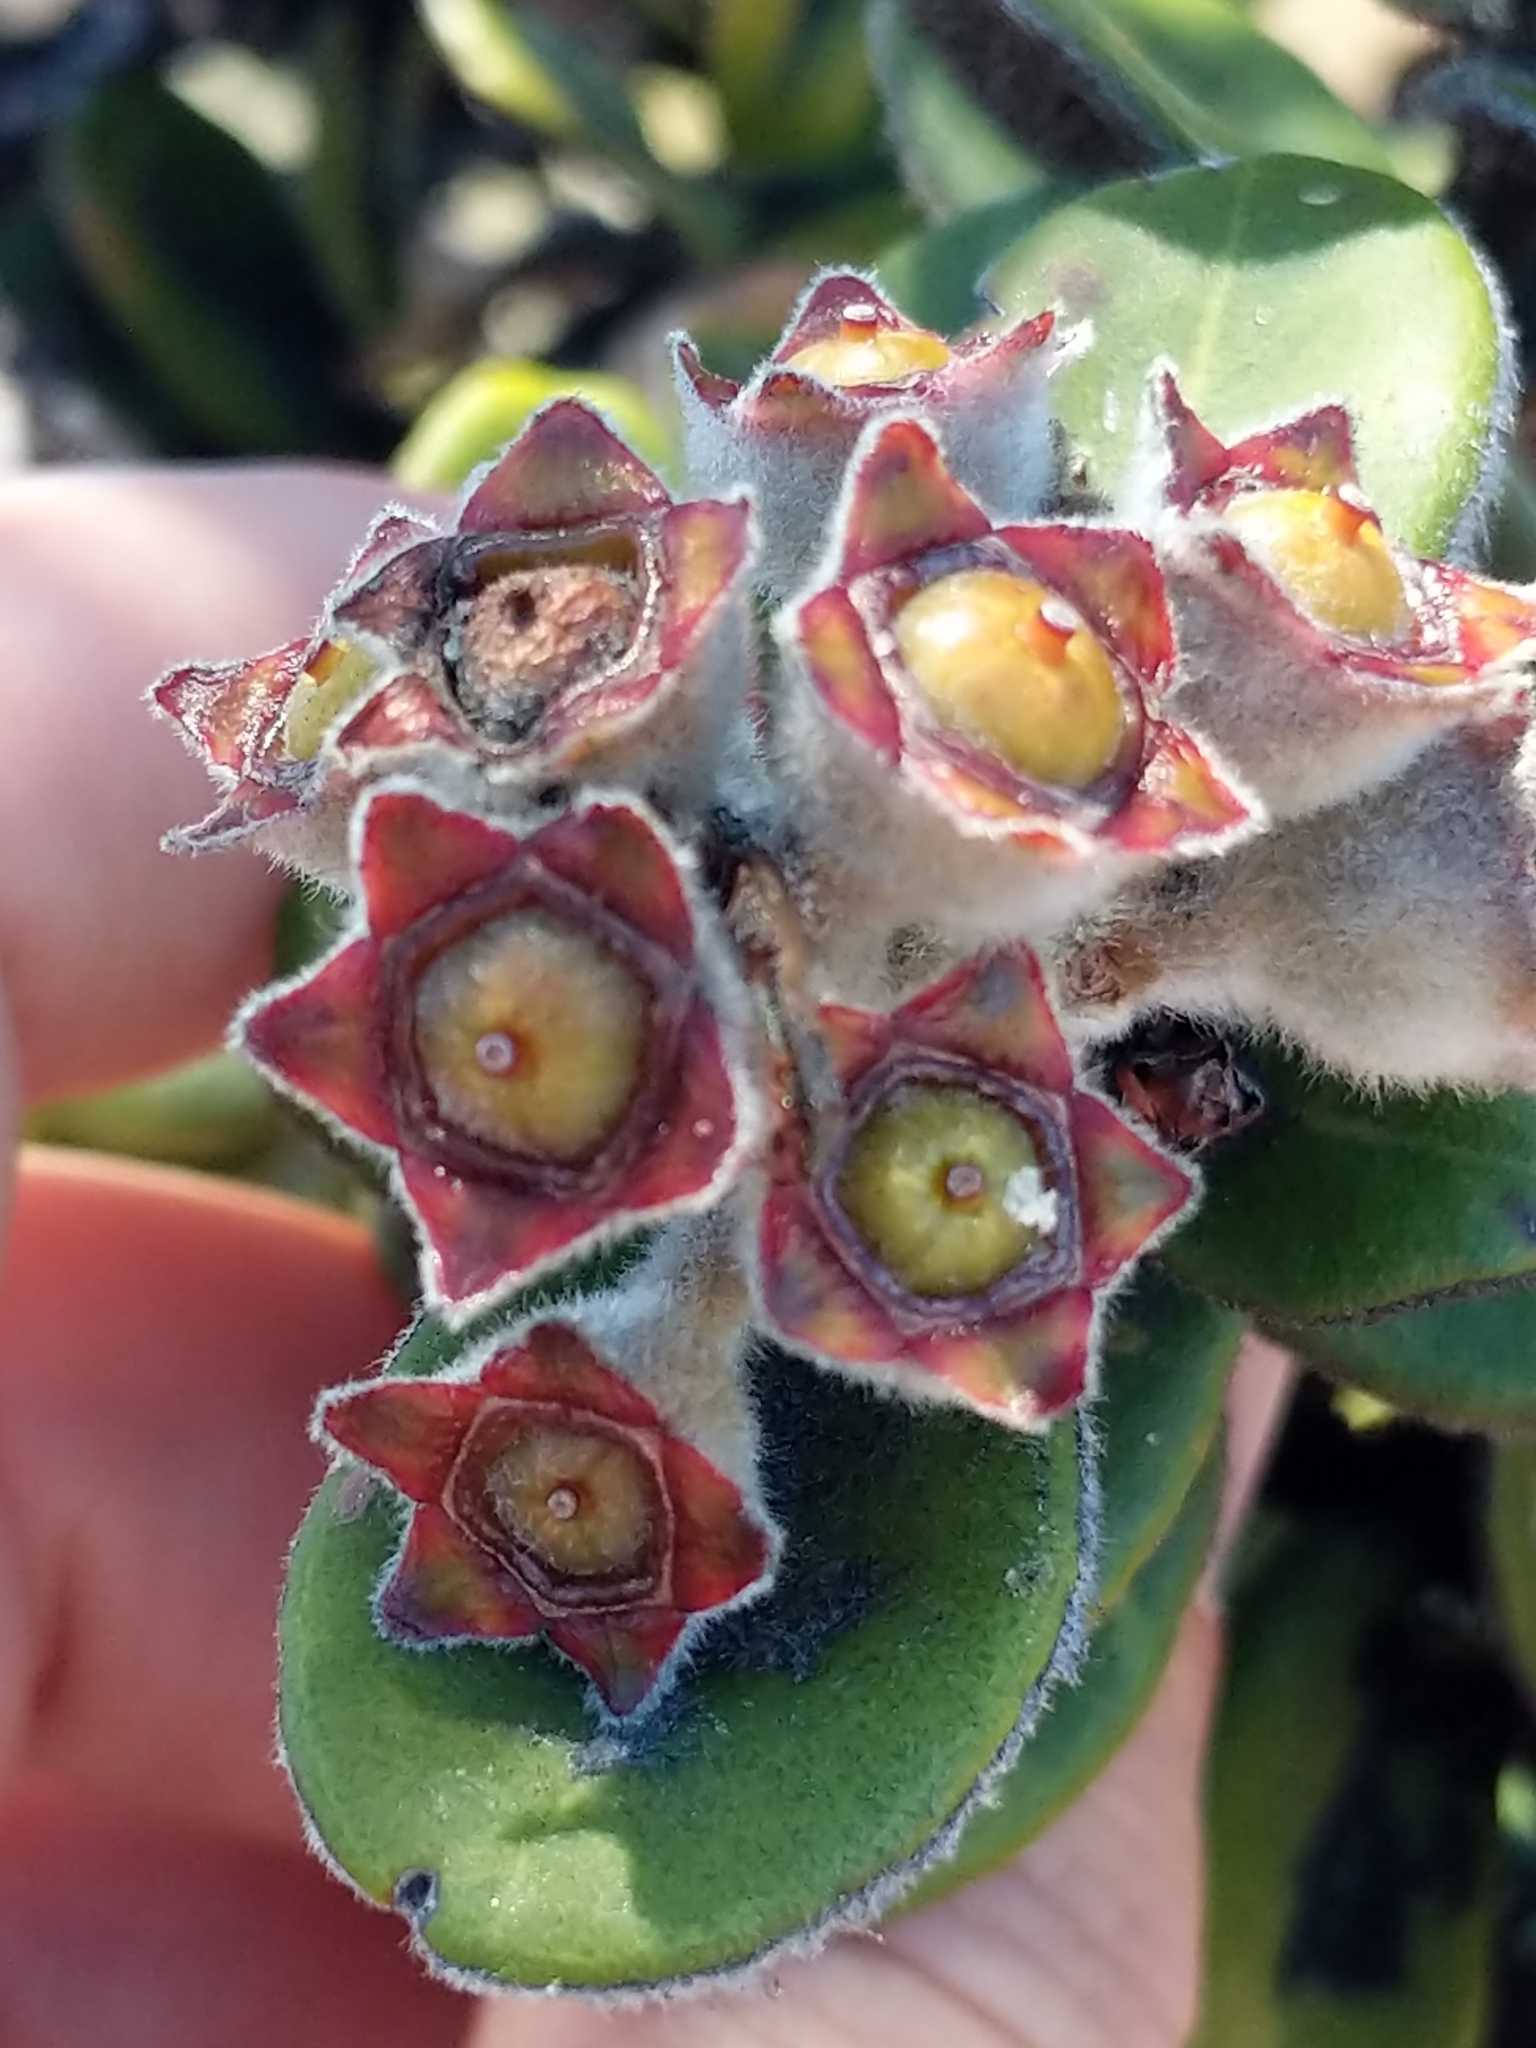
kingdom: Plantae
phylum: Tracheophyta
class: Magnoliopsida
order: Myrtales
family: Myrtaceae
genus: Metrosideros
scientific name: Metrosideros polymorpha
